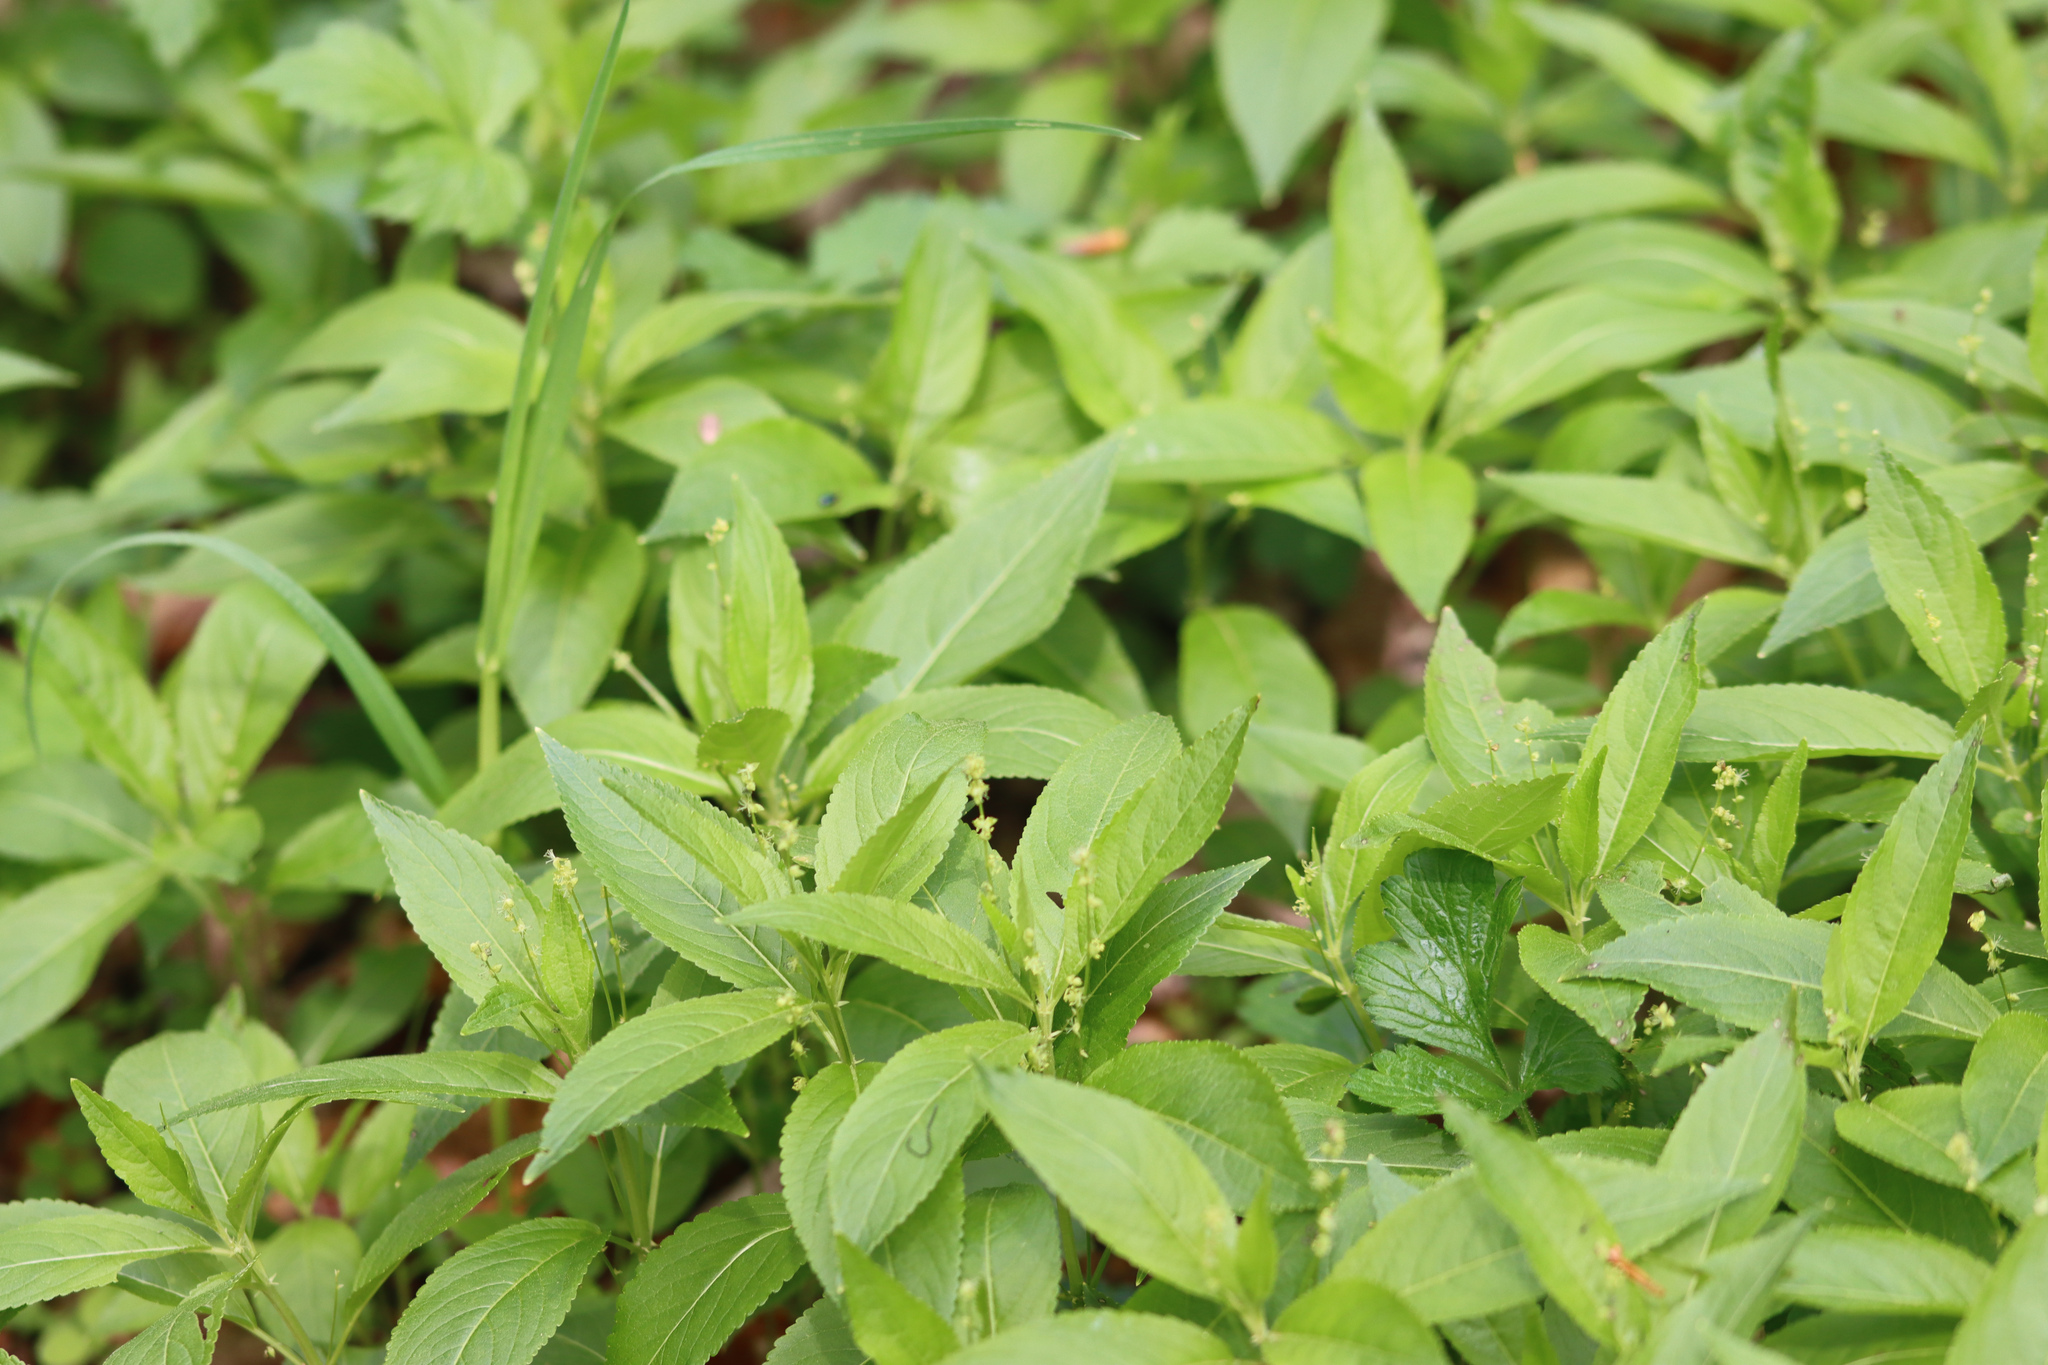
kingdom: Plantae
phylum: Tracheophyta
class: Magnoliopsida
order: Malpighiales
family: Euphorbiaceae
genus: Mercurialis
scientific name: Mercurialis perennis
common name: Dog mercury
